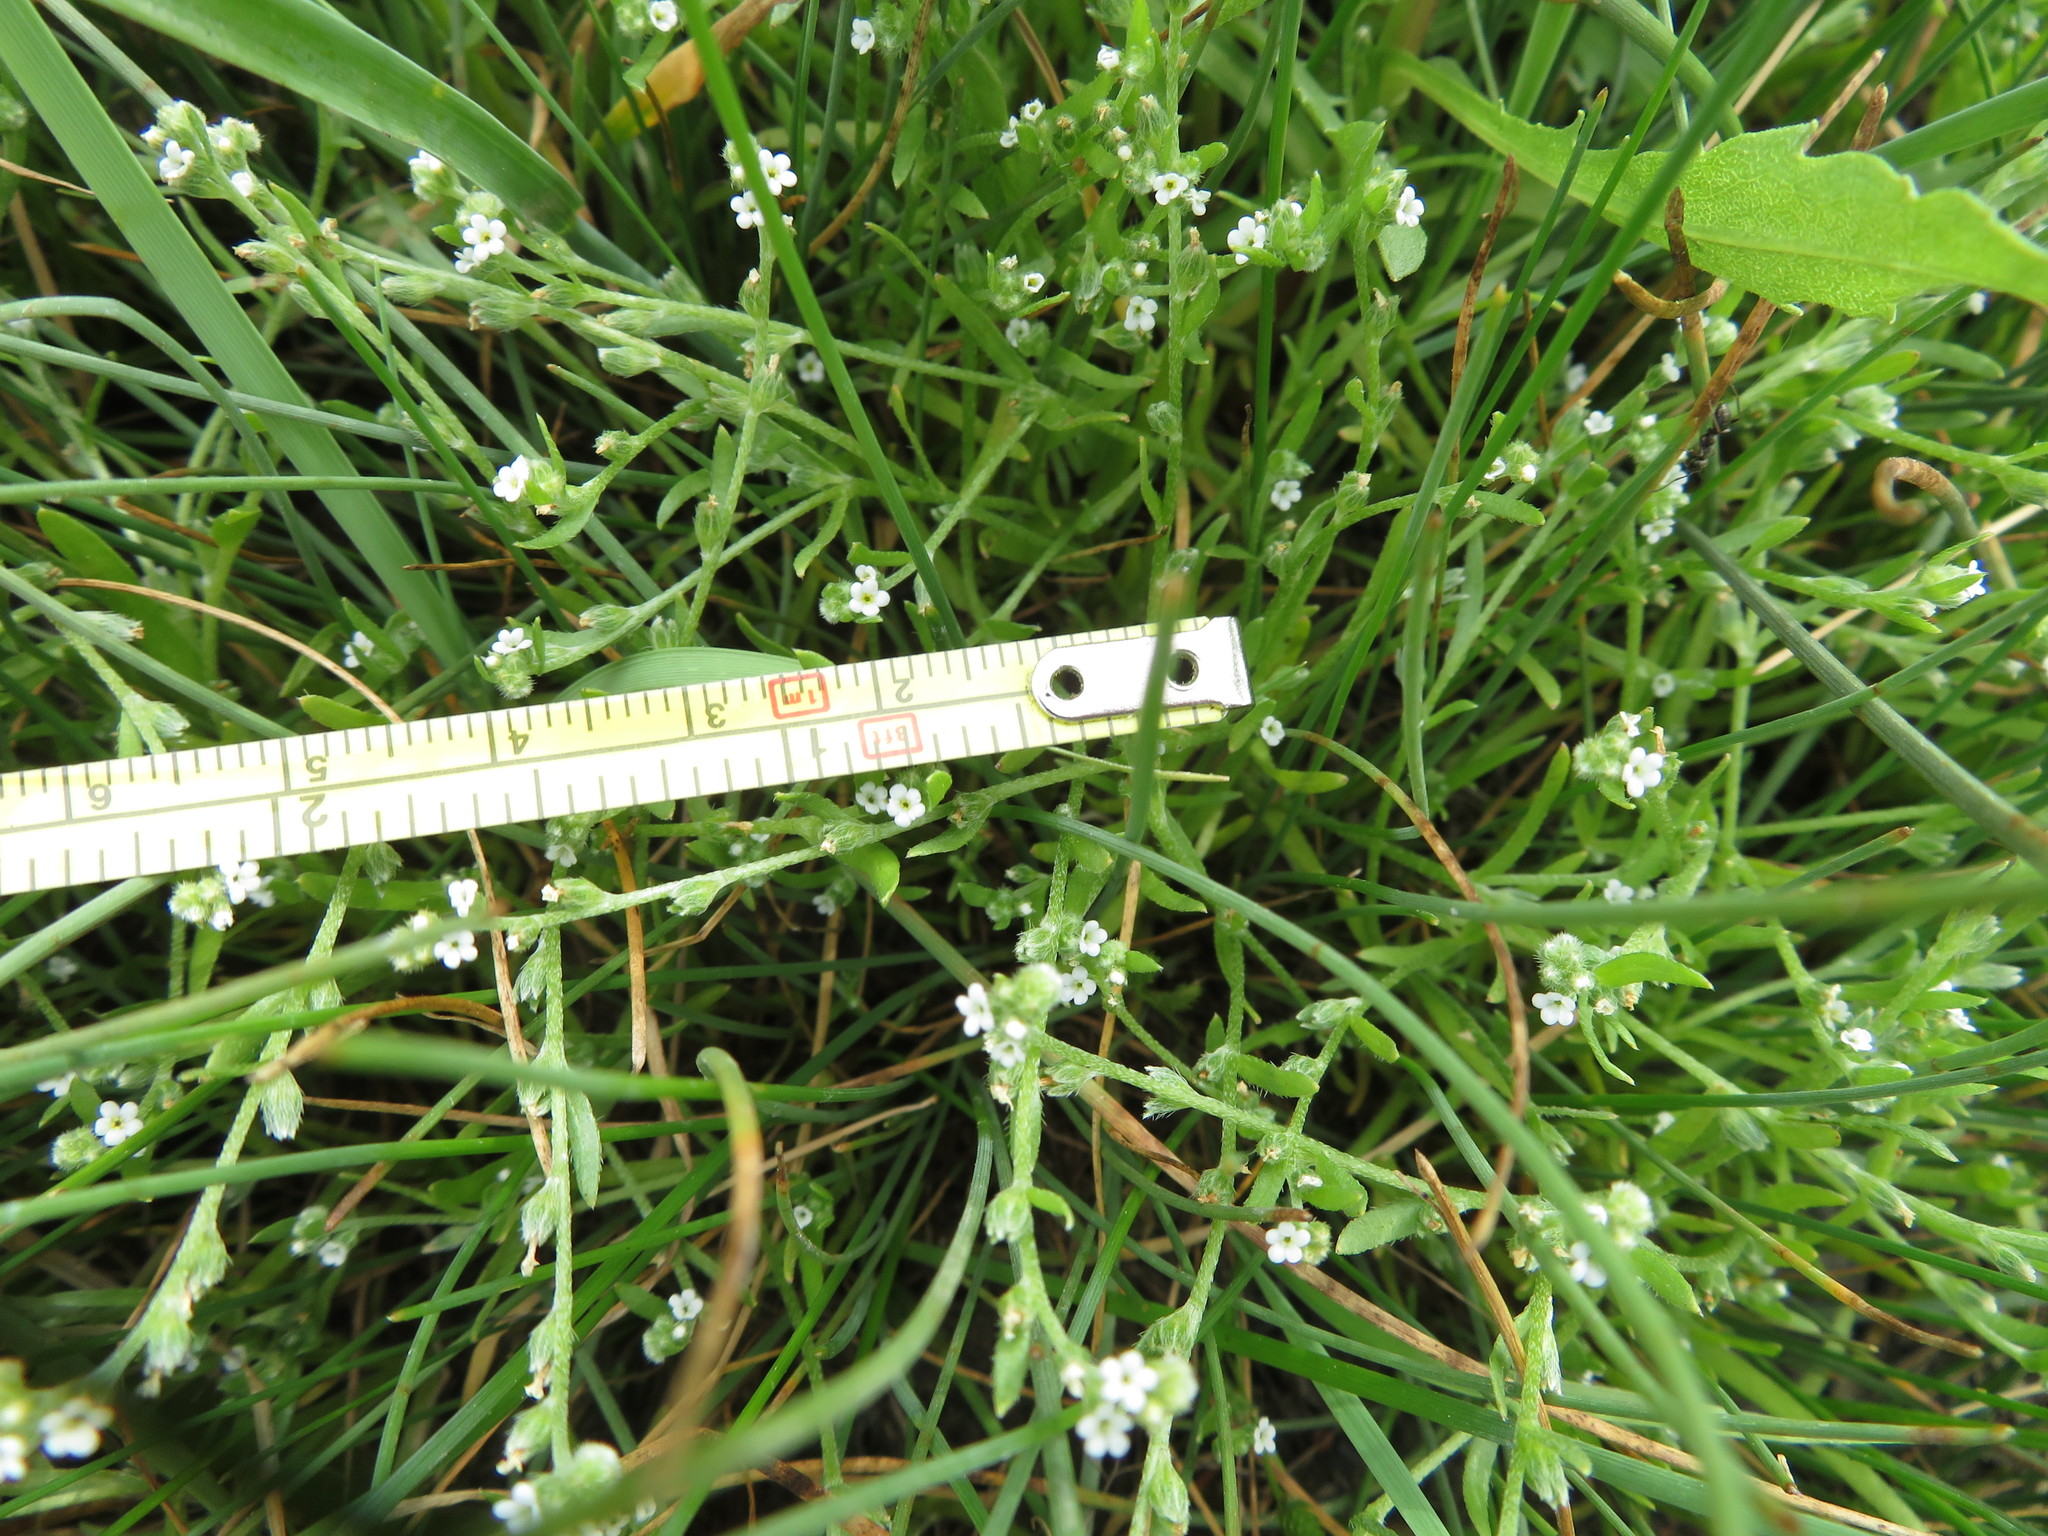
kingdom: Plantae
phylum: Tracheophyta
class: Magnoliopsida
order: Boraginales
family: Boraginaceae
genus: Plagiobothrys
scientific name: Plagiobothrys scouleri
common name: White forget-me-not
